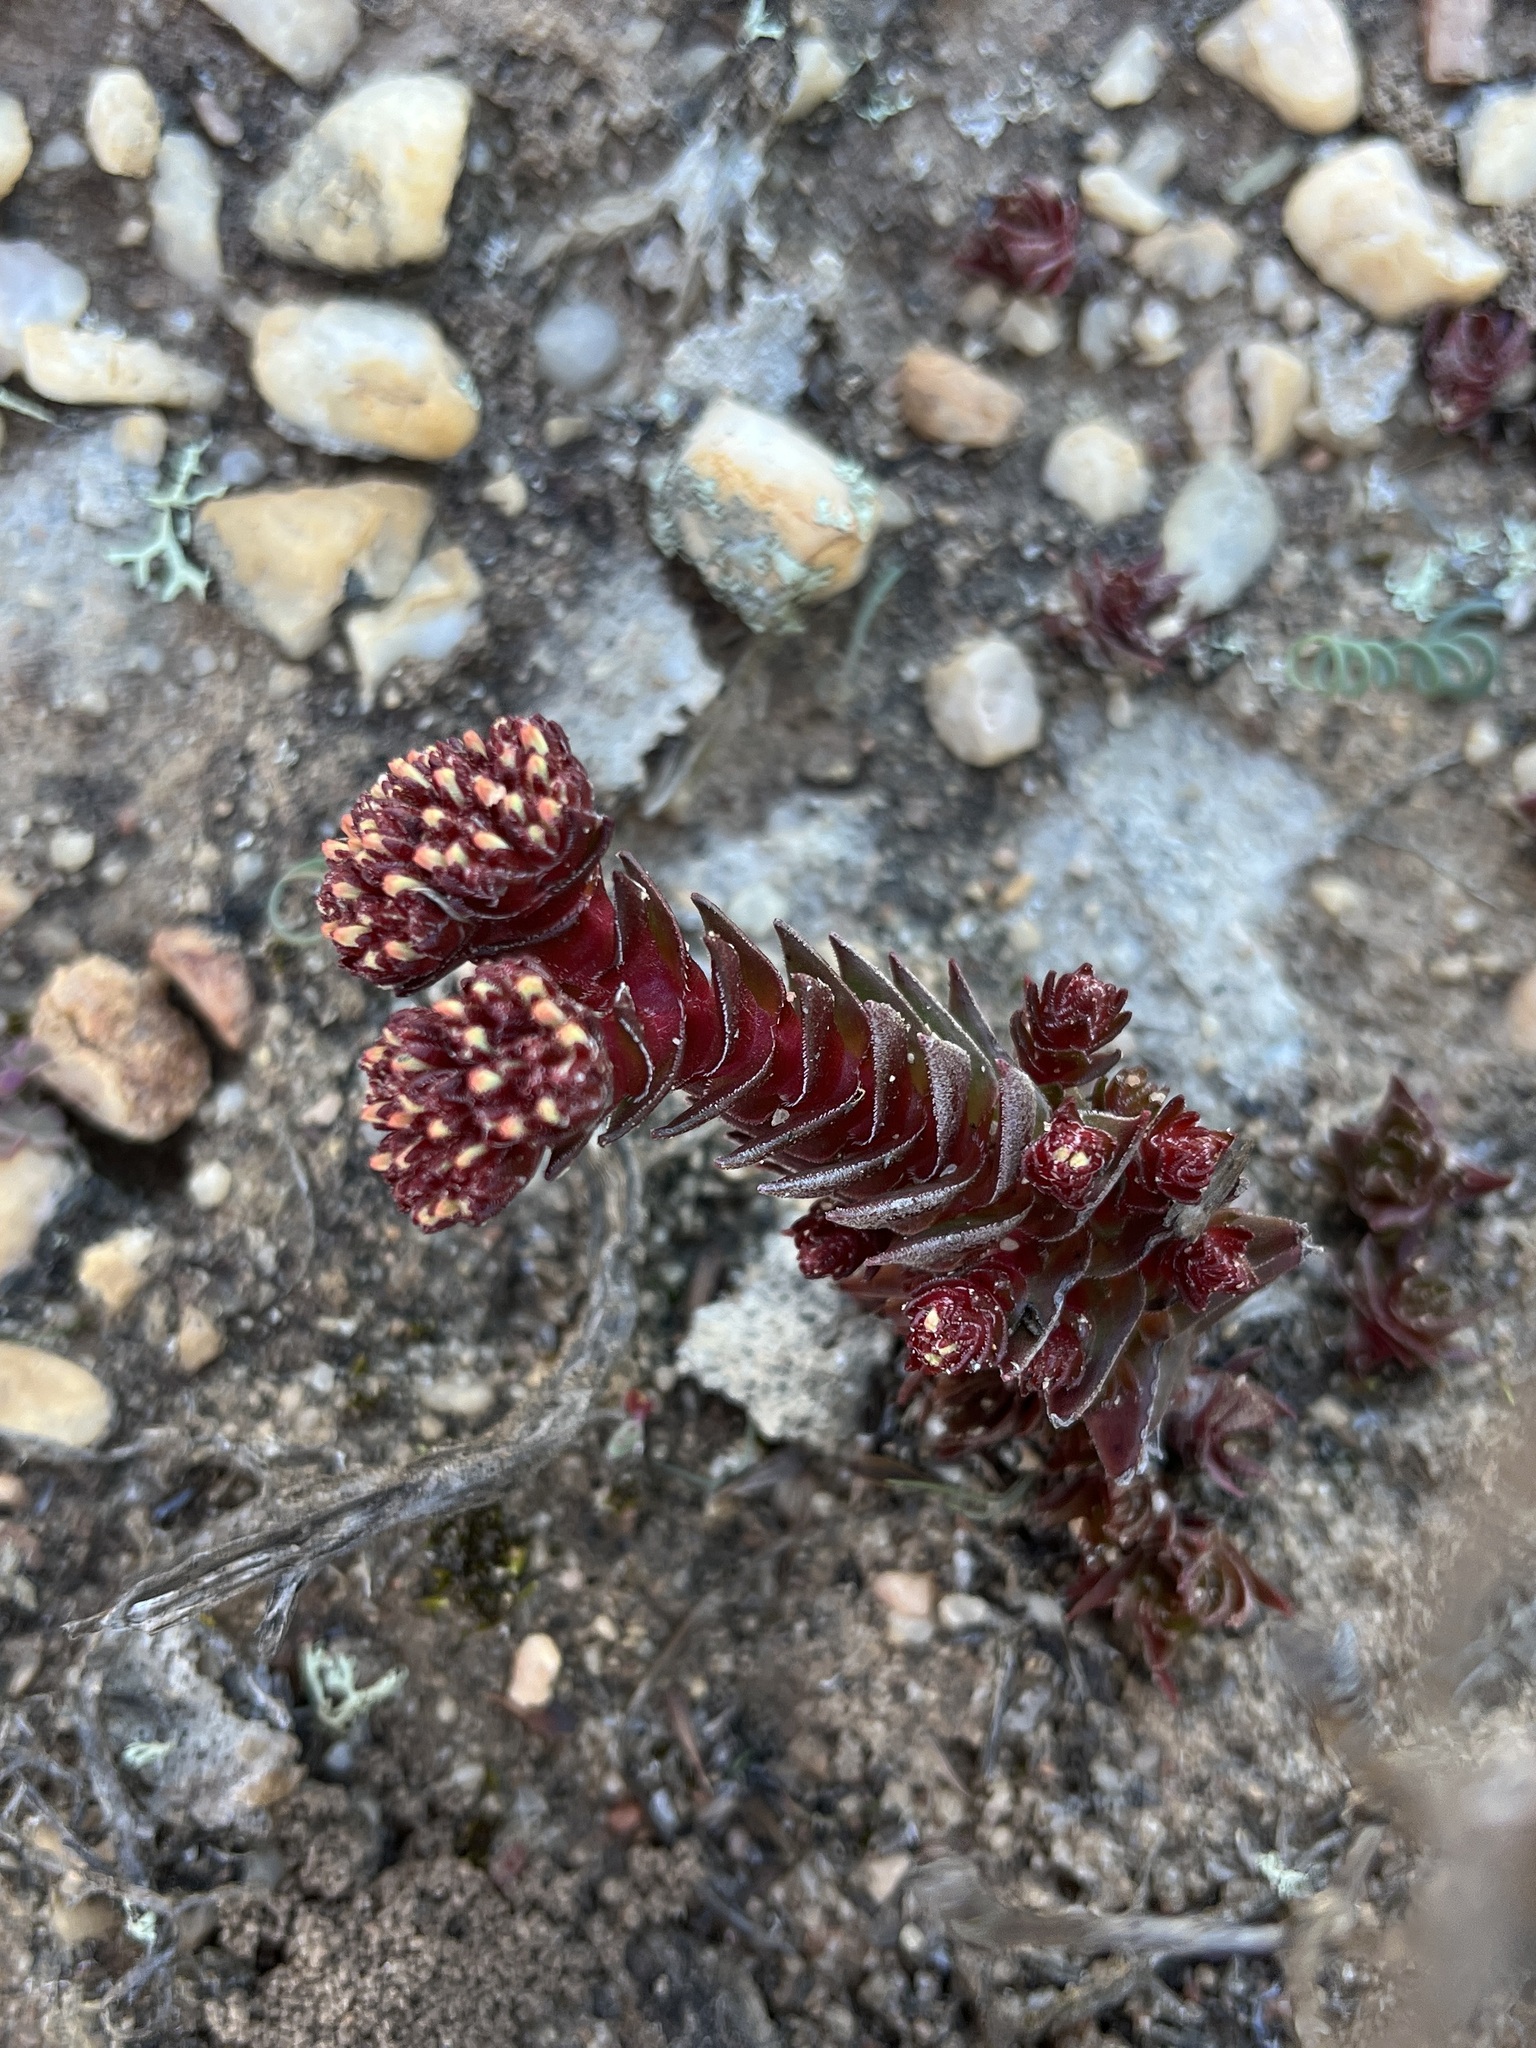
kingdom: Plantae
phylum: Tracheophyta
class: Magnoliopsida
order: Saxifragales
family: Crassulaceae
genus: Crassula
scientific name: Crassula alpestris
